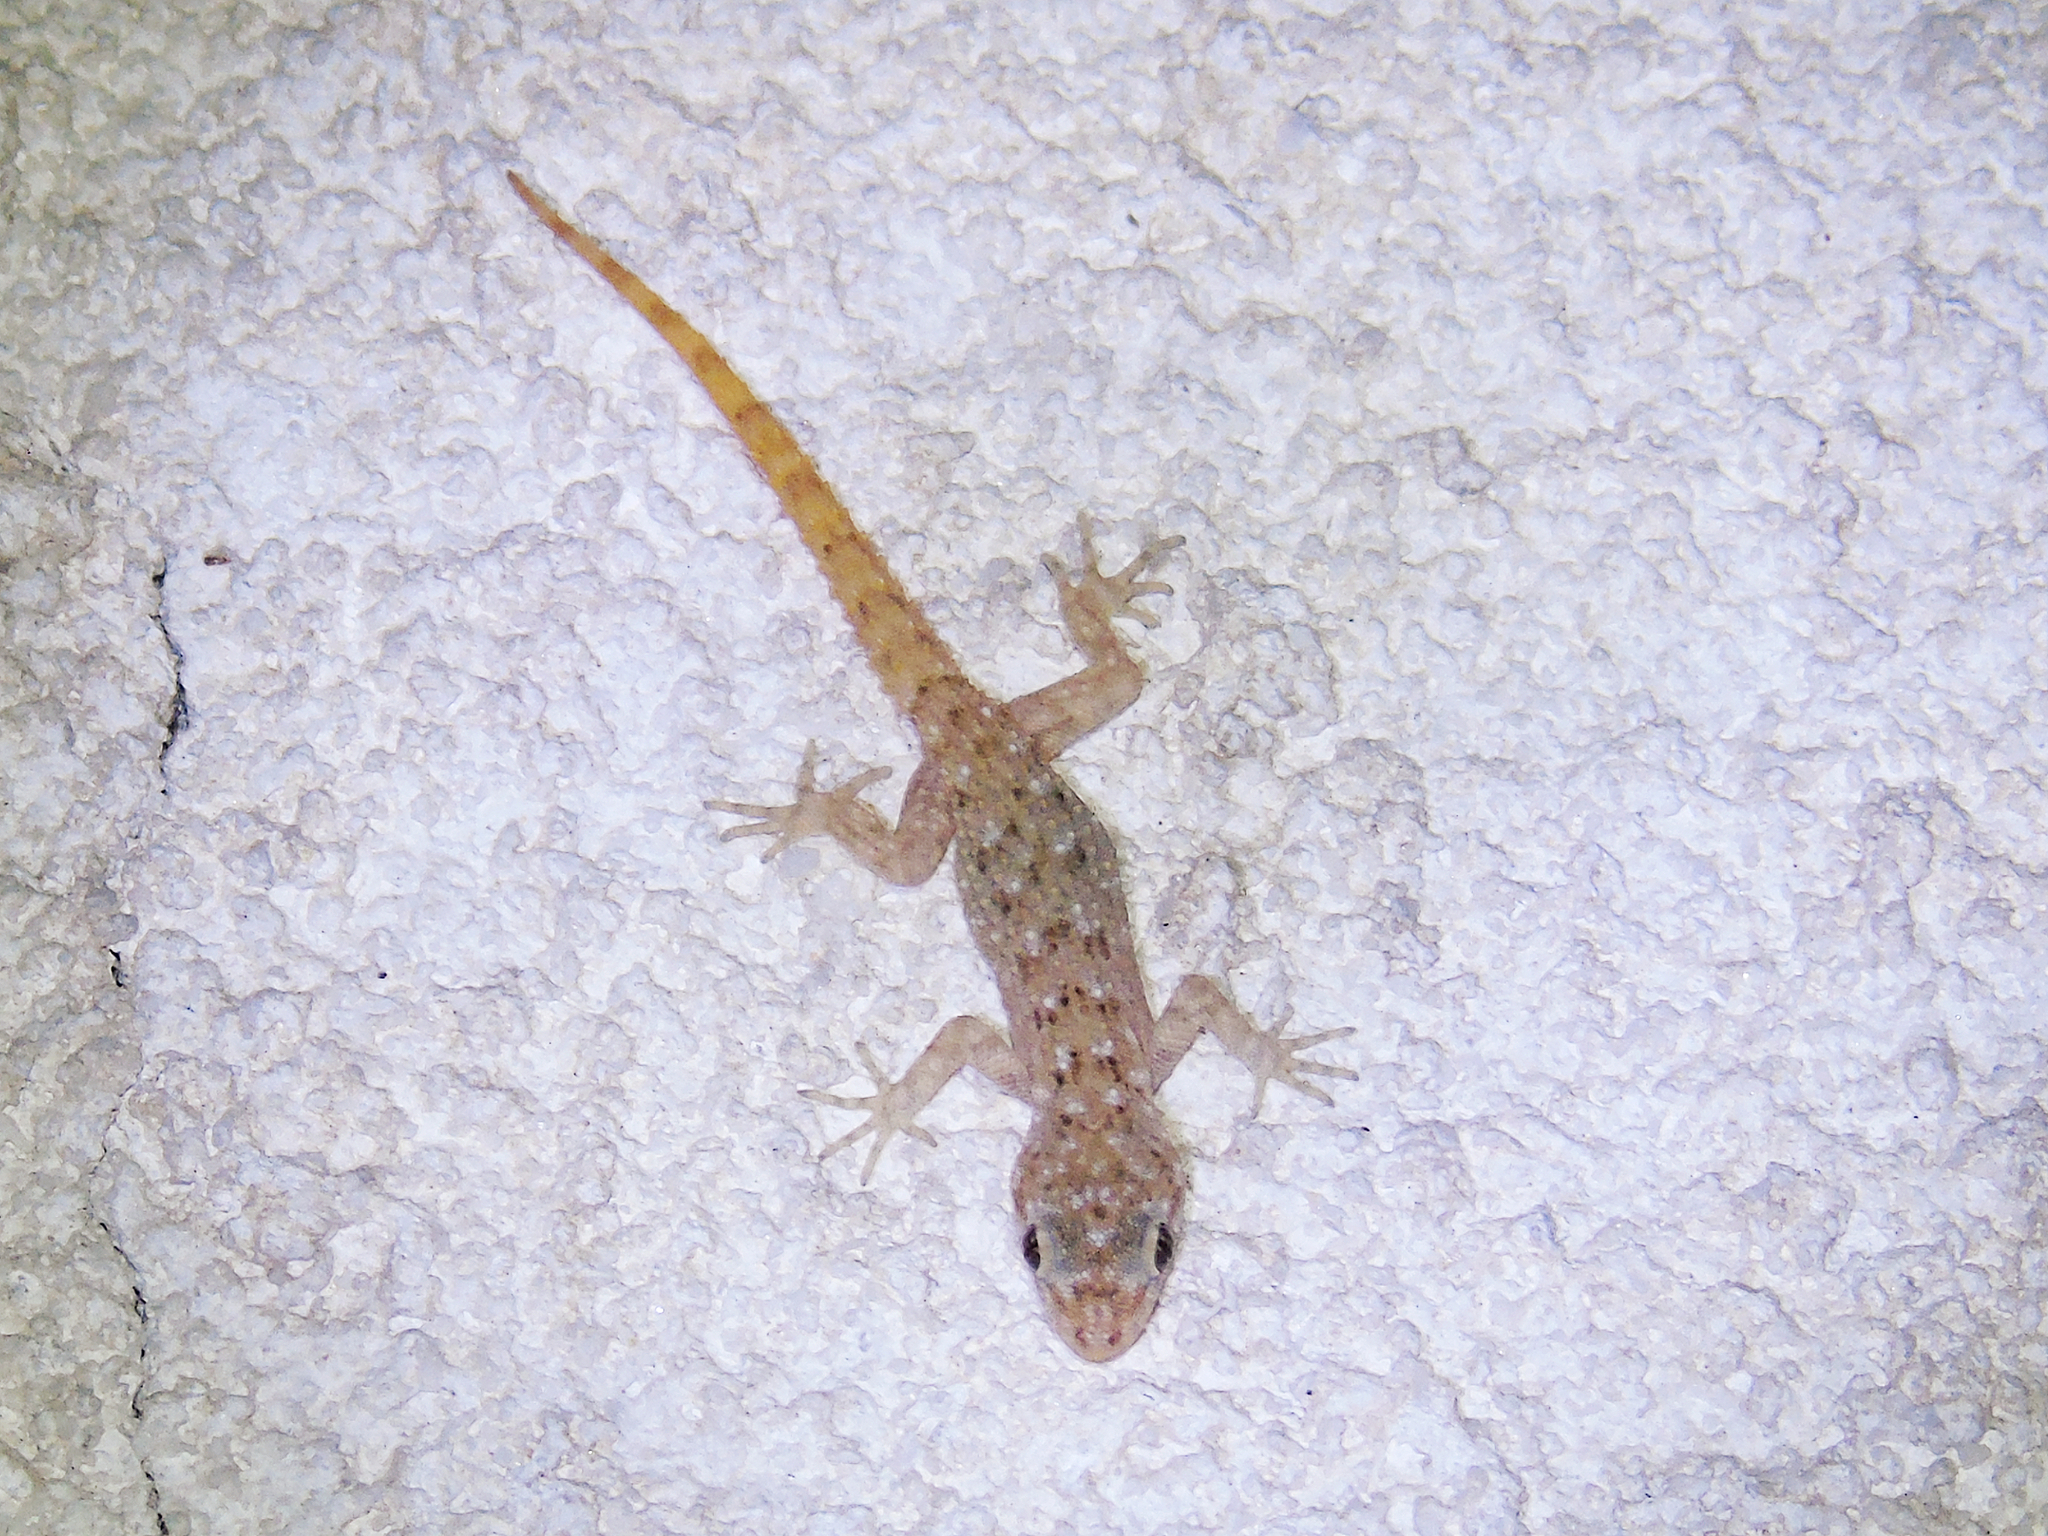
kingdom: Animalia
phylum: Chordata
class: Squamata
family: Gekkonidae
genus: Mediodactylus
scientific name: Mediodactylus kotschyi
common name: Kotschy's gecko
